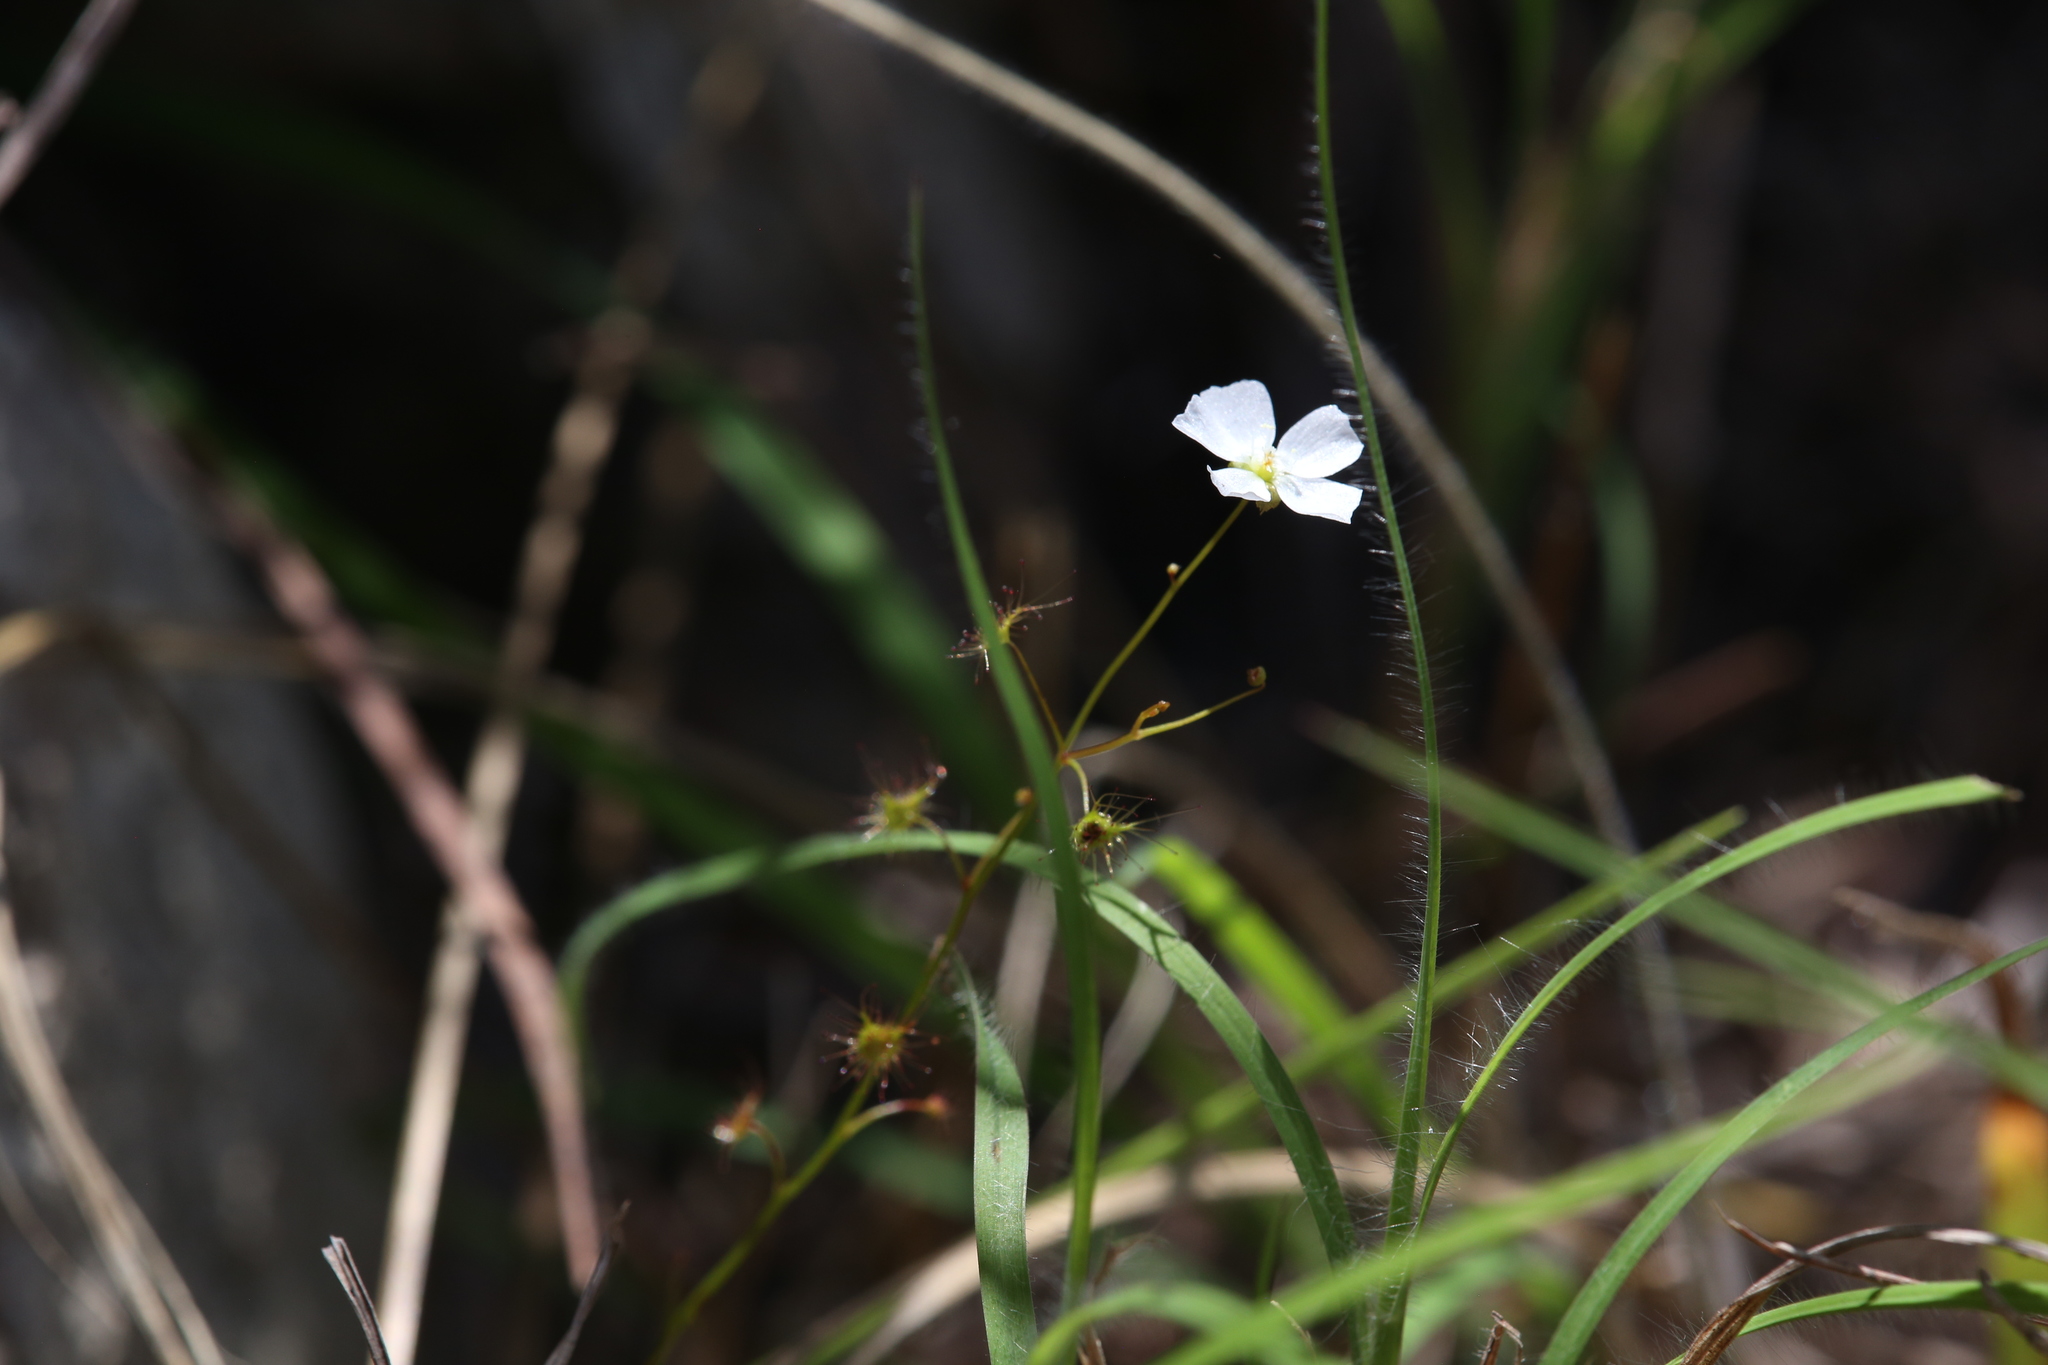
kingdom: Plantae
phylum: Tracheophyta
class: Magnoliopsida
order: Caryophyllales
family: Droseraceae
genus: Drosera
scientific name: Drosera peltata
